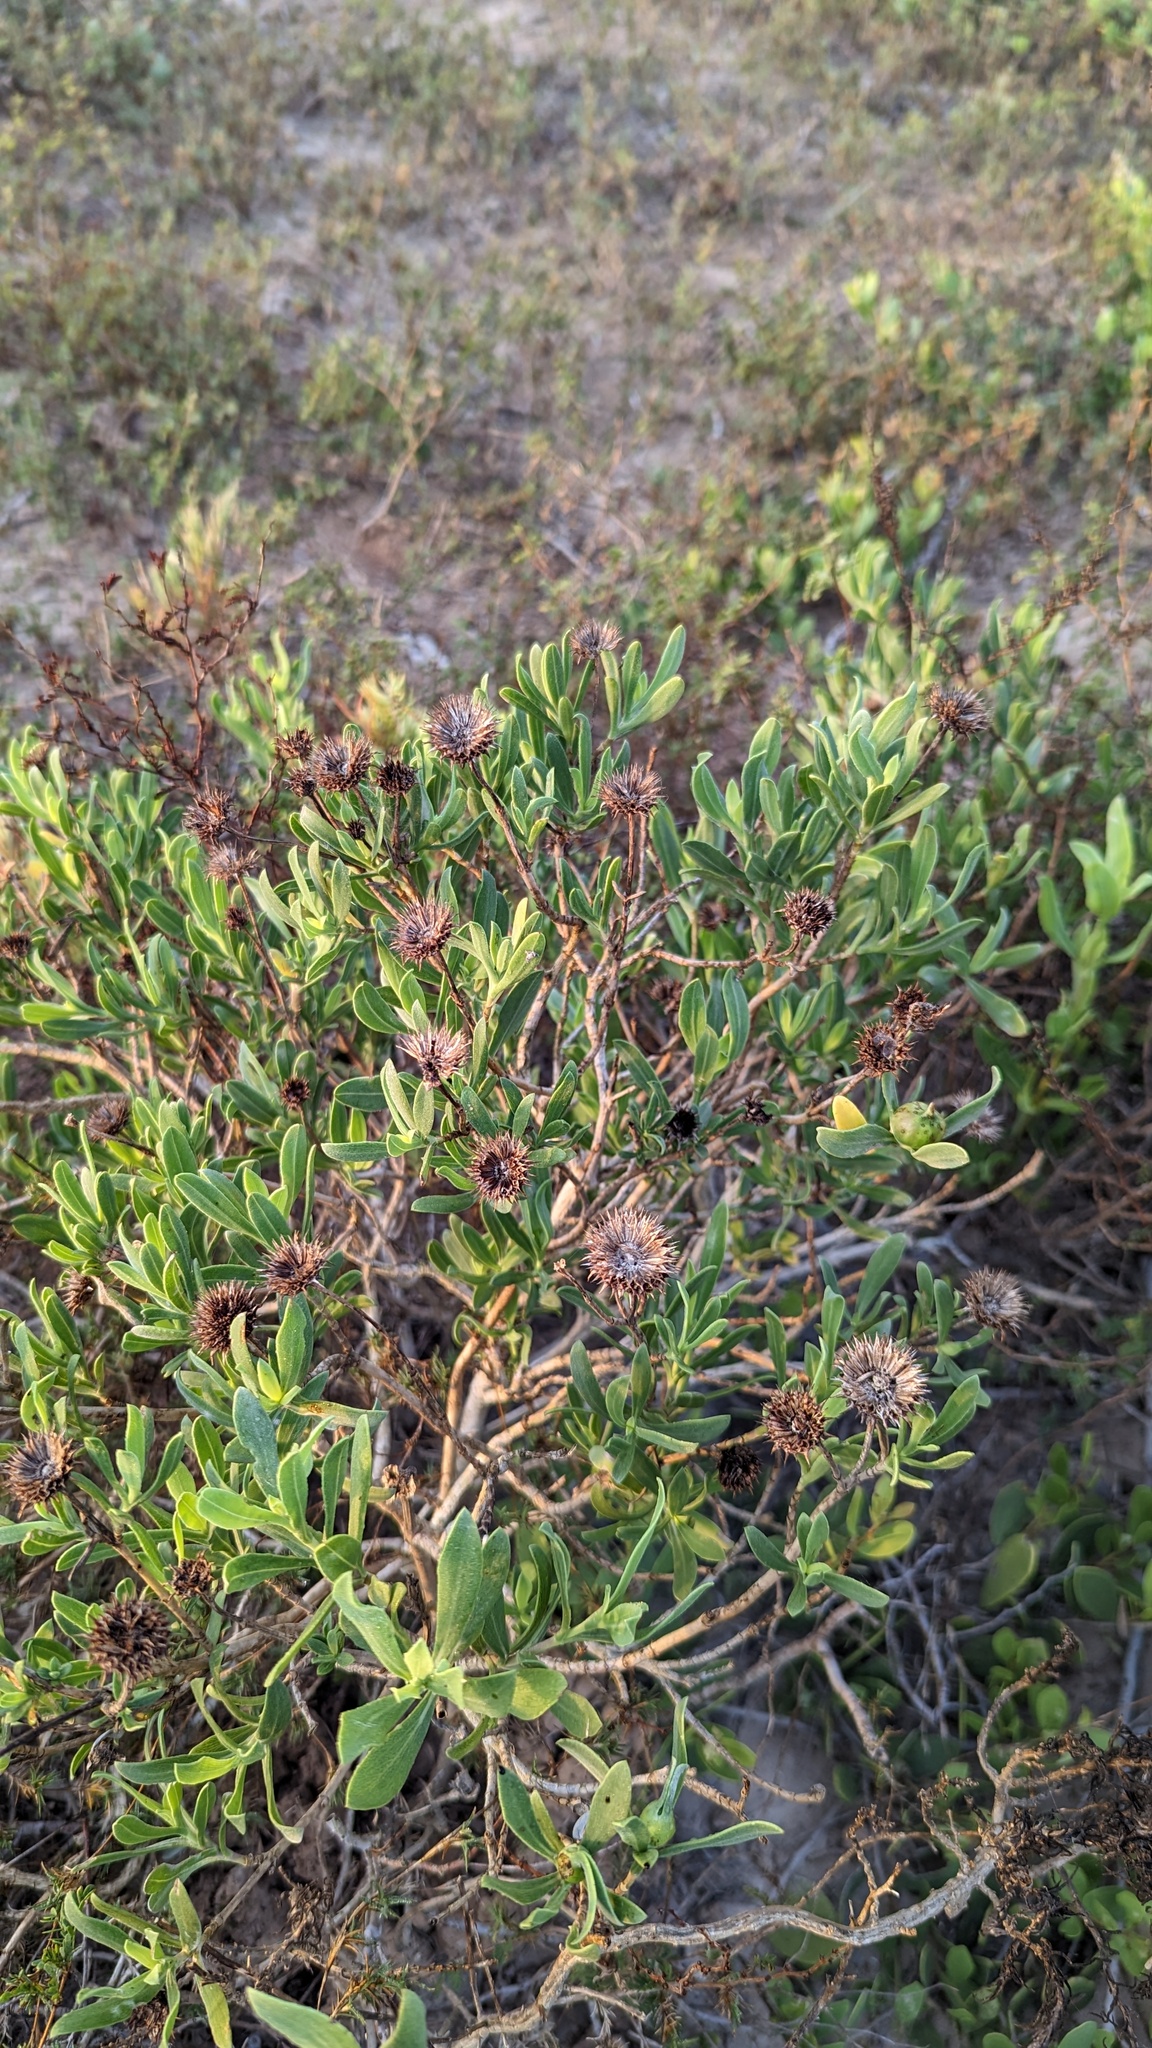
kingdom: Plantae
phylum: Tracheophyta
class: Magnoliopsida
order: Asterales
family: Asteraceae
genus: Borrichia
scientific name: Borrichia frutescens
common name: Sea oxeye
